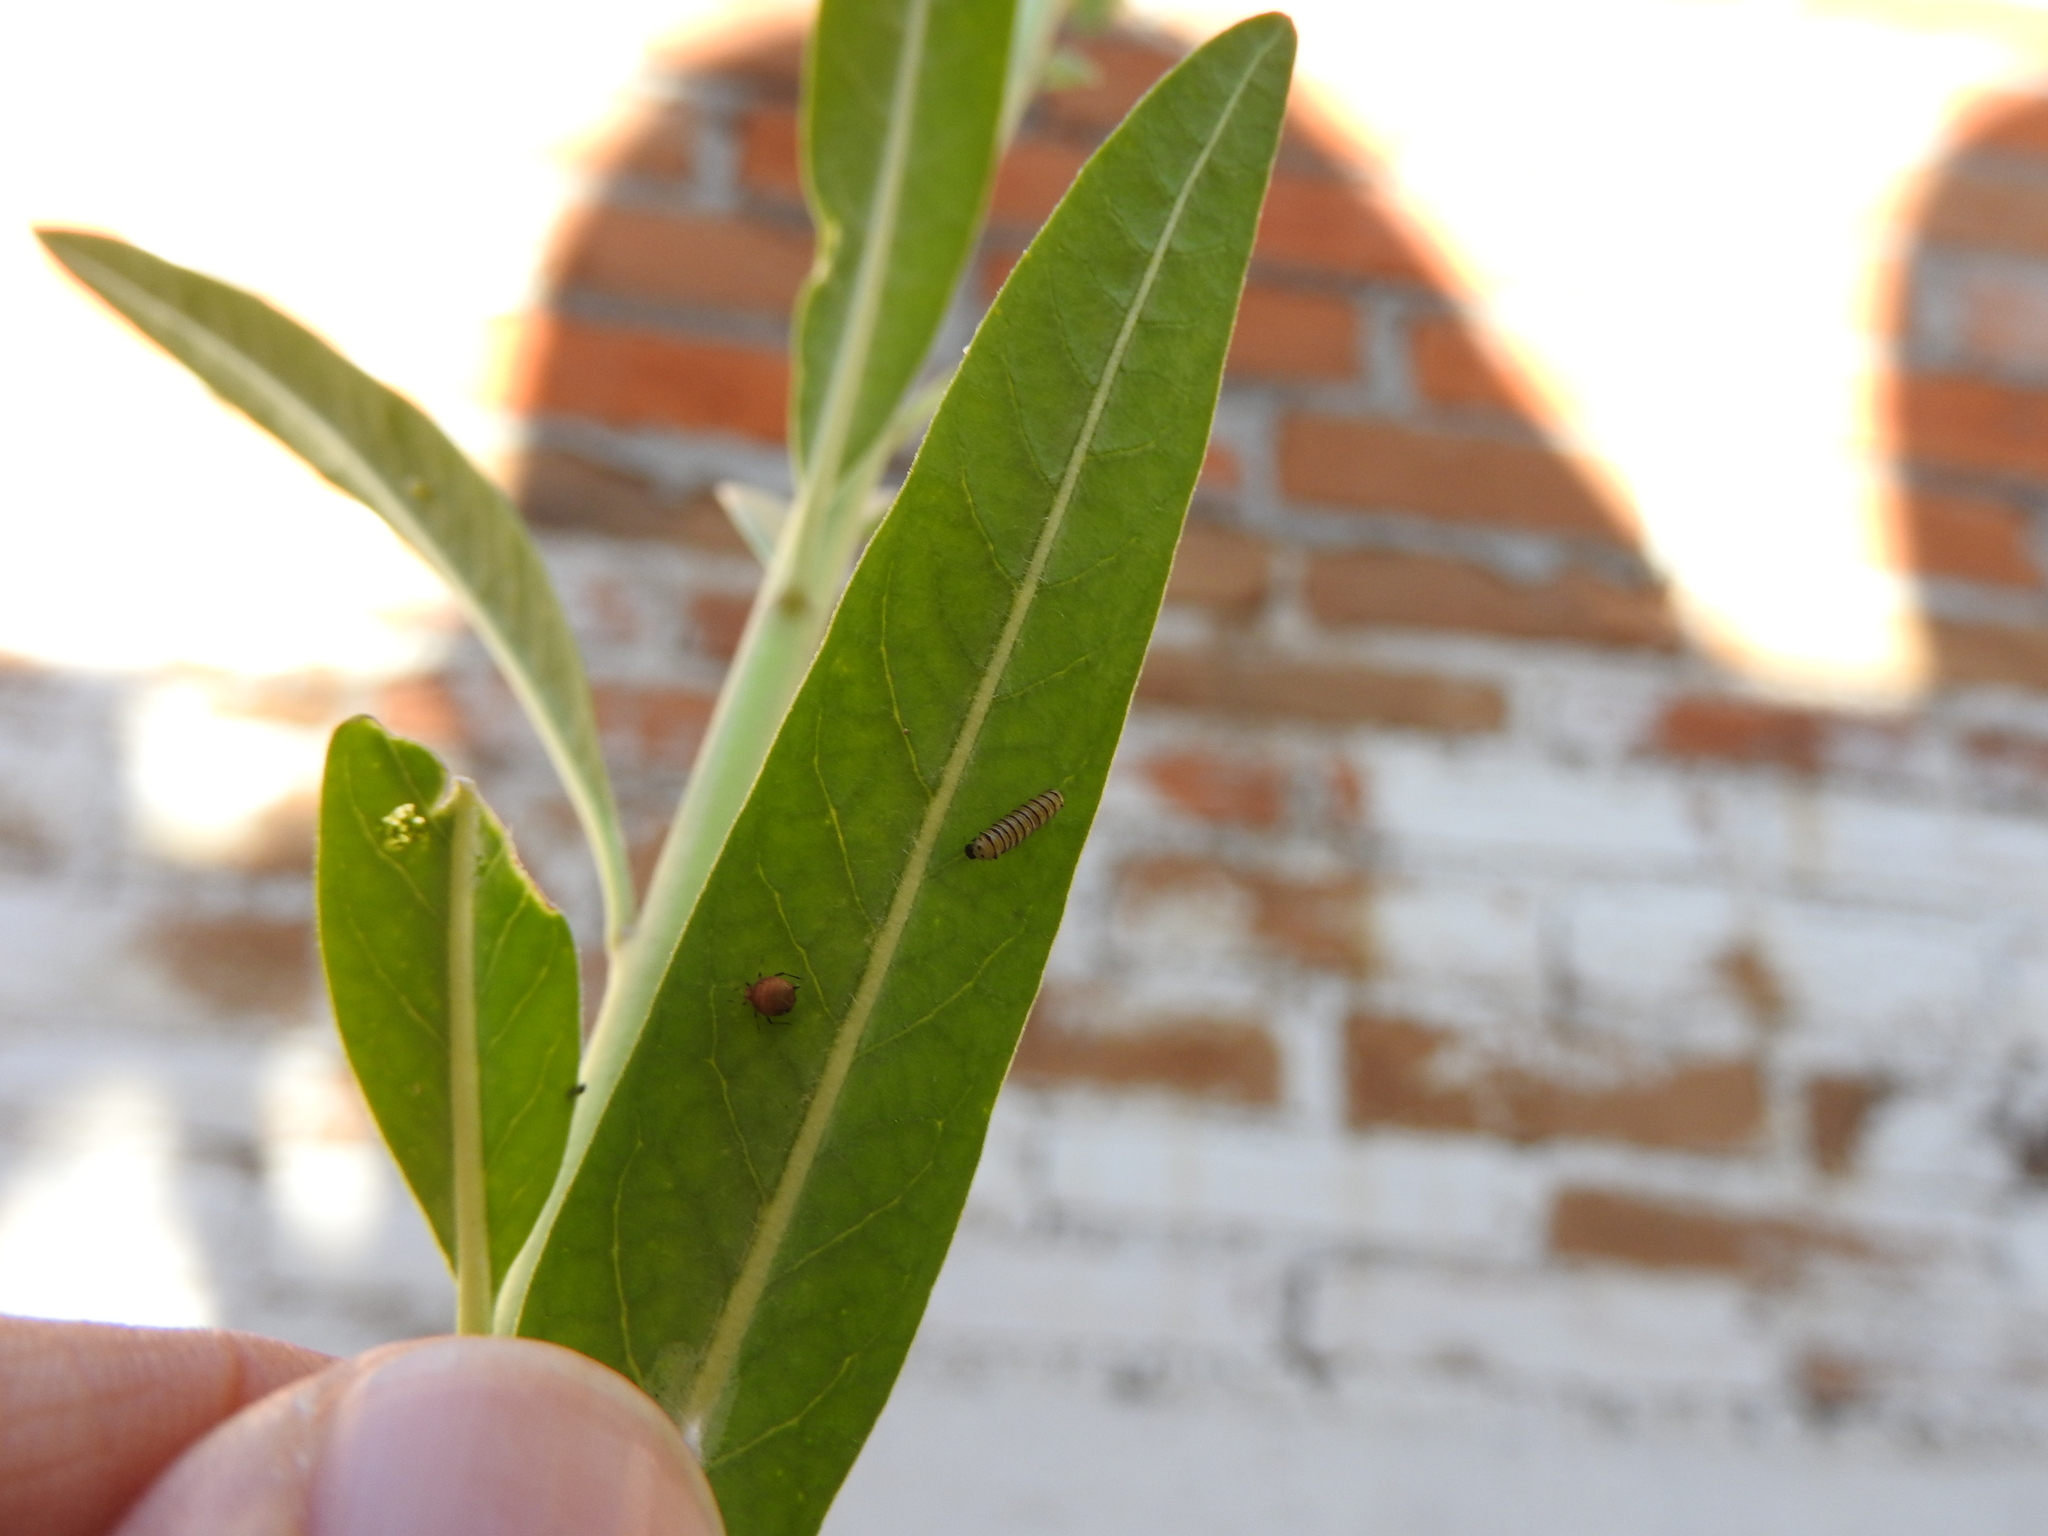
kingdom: Animalia
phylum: Arthropoda
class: Insecta
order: Lepidoptera
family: Nymphalidae
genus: Danaus
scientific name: Danaus plexippus
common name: Monarch
